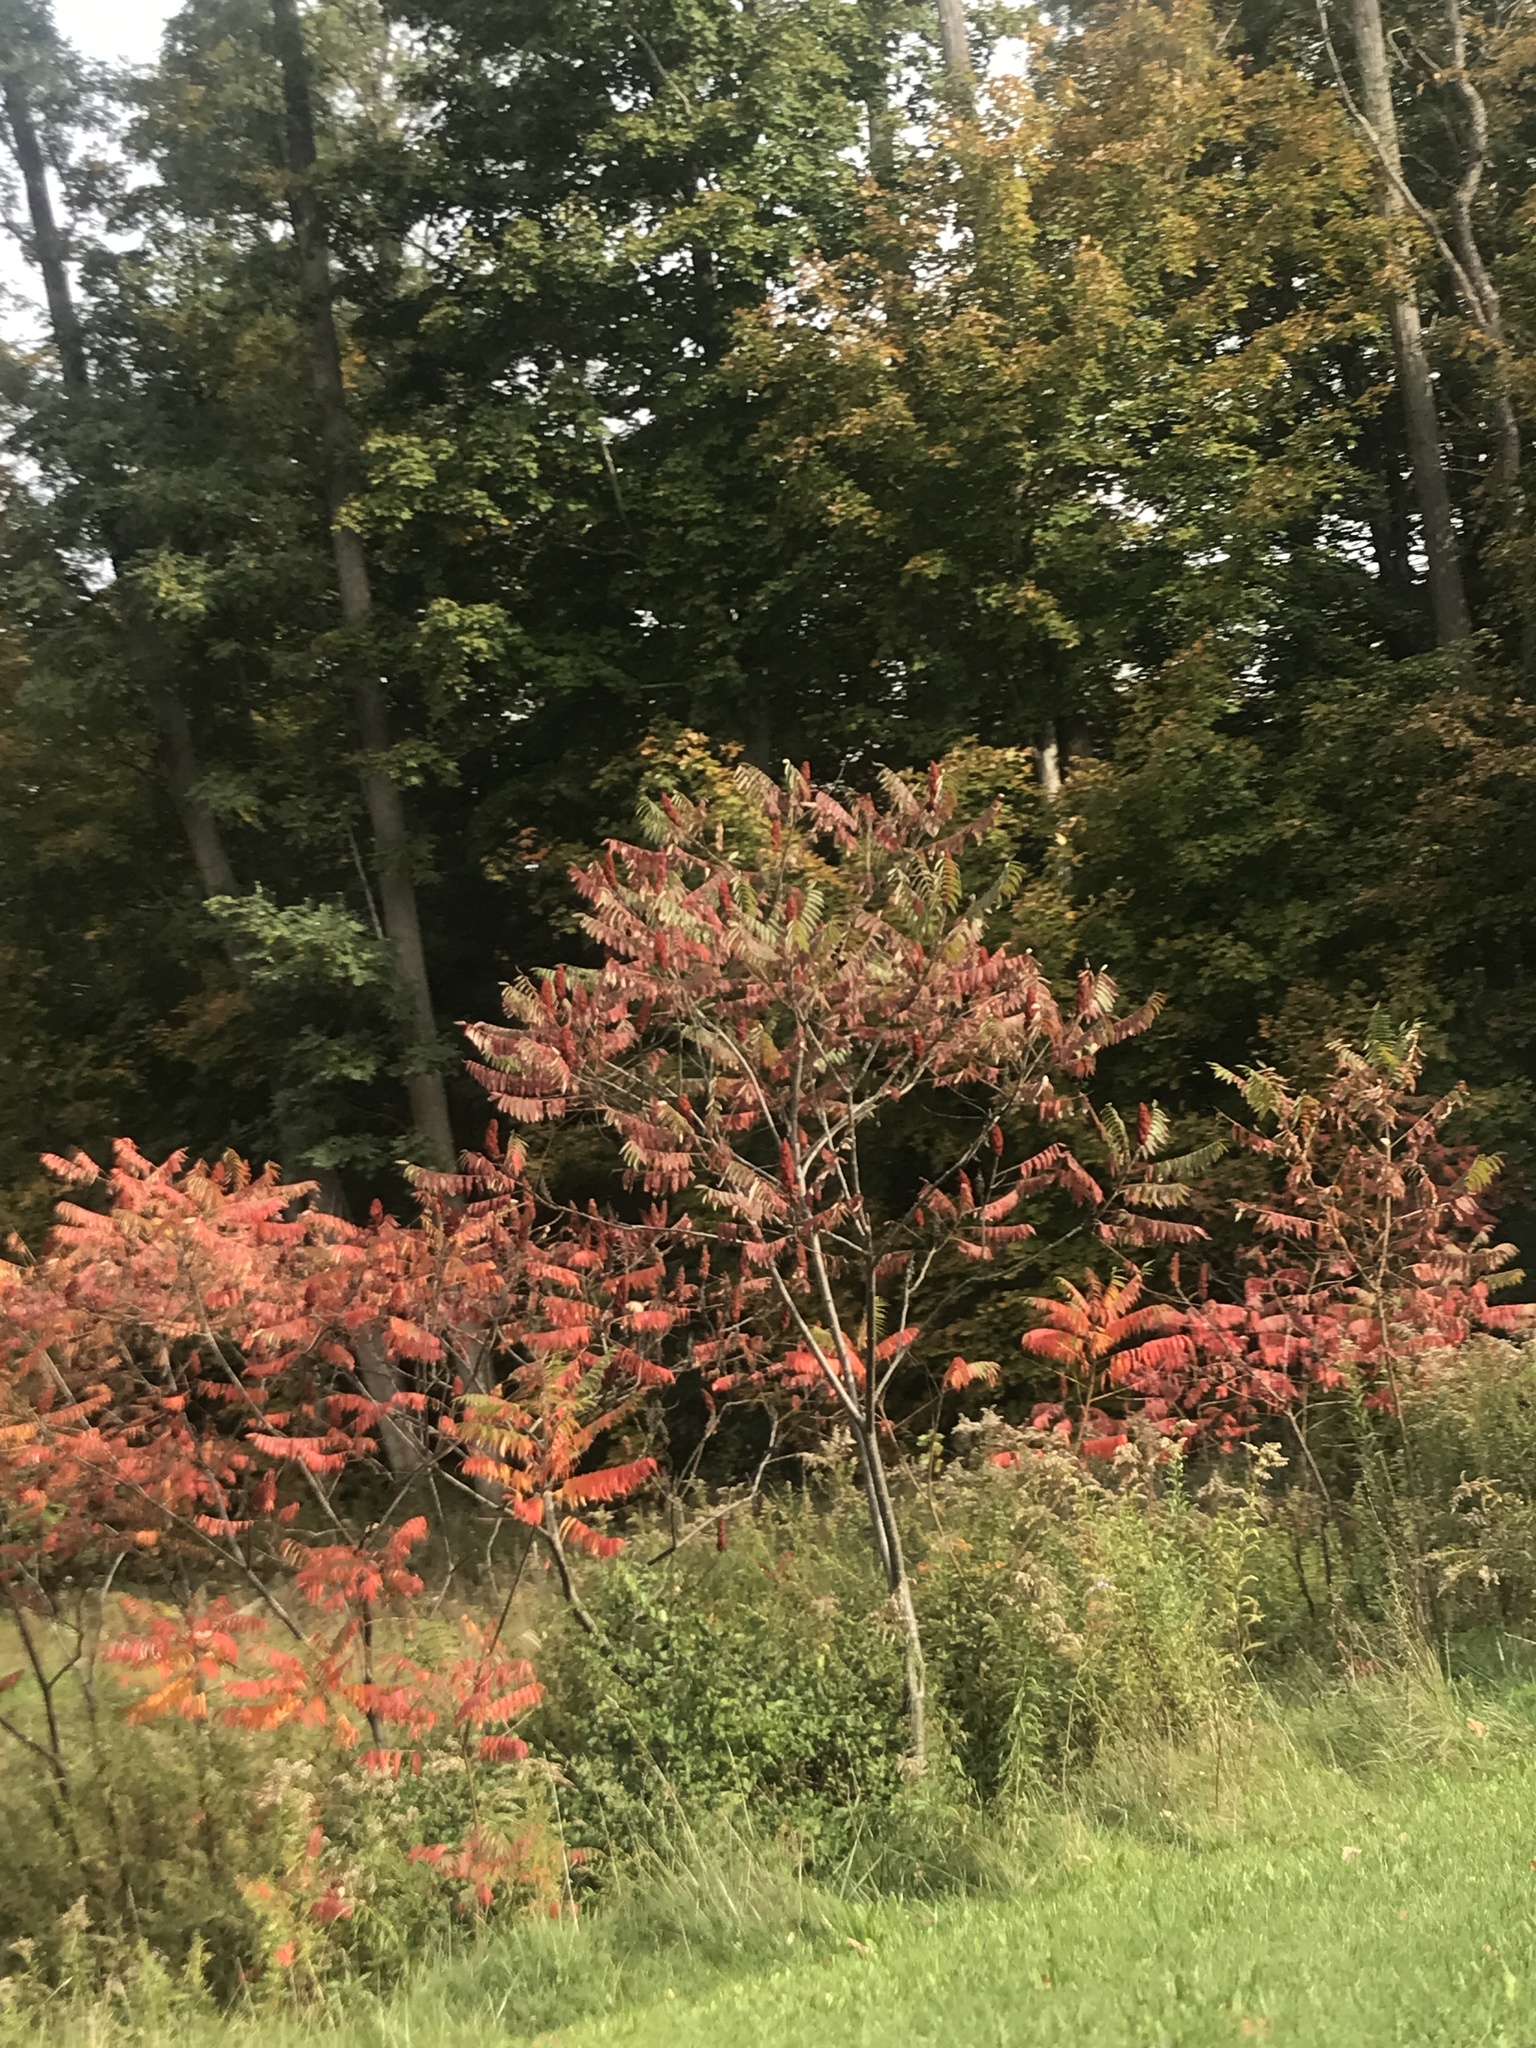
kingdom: Plantae
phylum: Tracheophyta
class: Magnoliopsida
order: Sapindales
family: Anacardiaceae
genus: Rhus
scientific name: Rhus typhina
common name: Staghorn sumac
